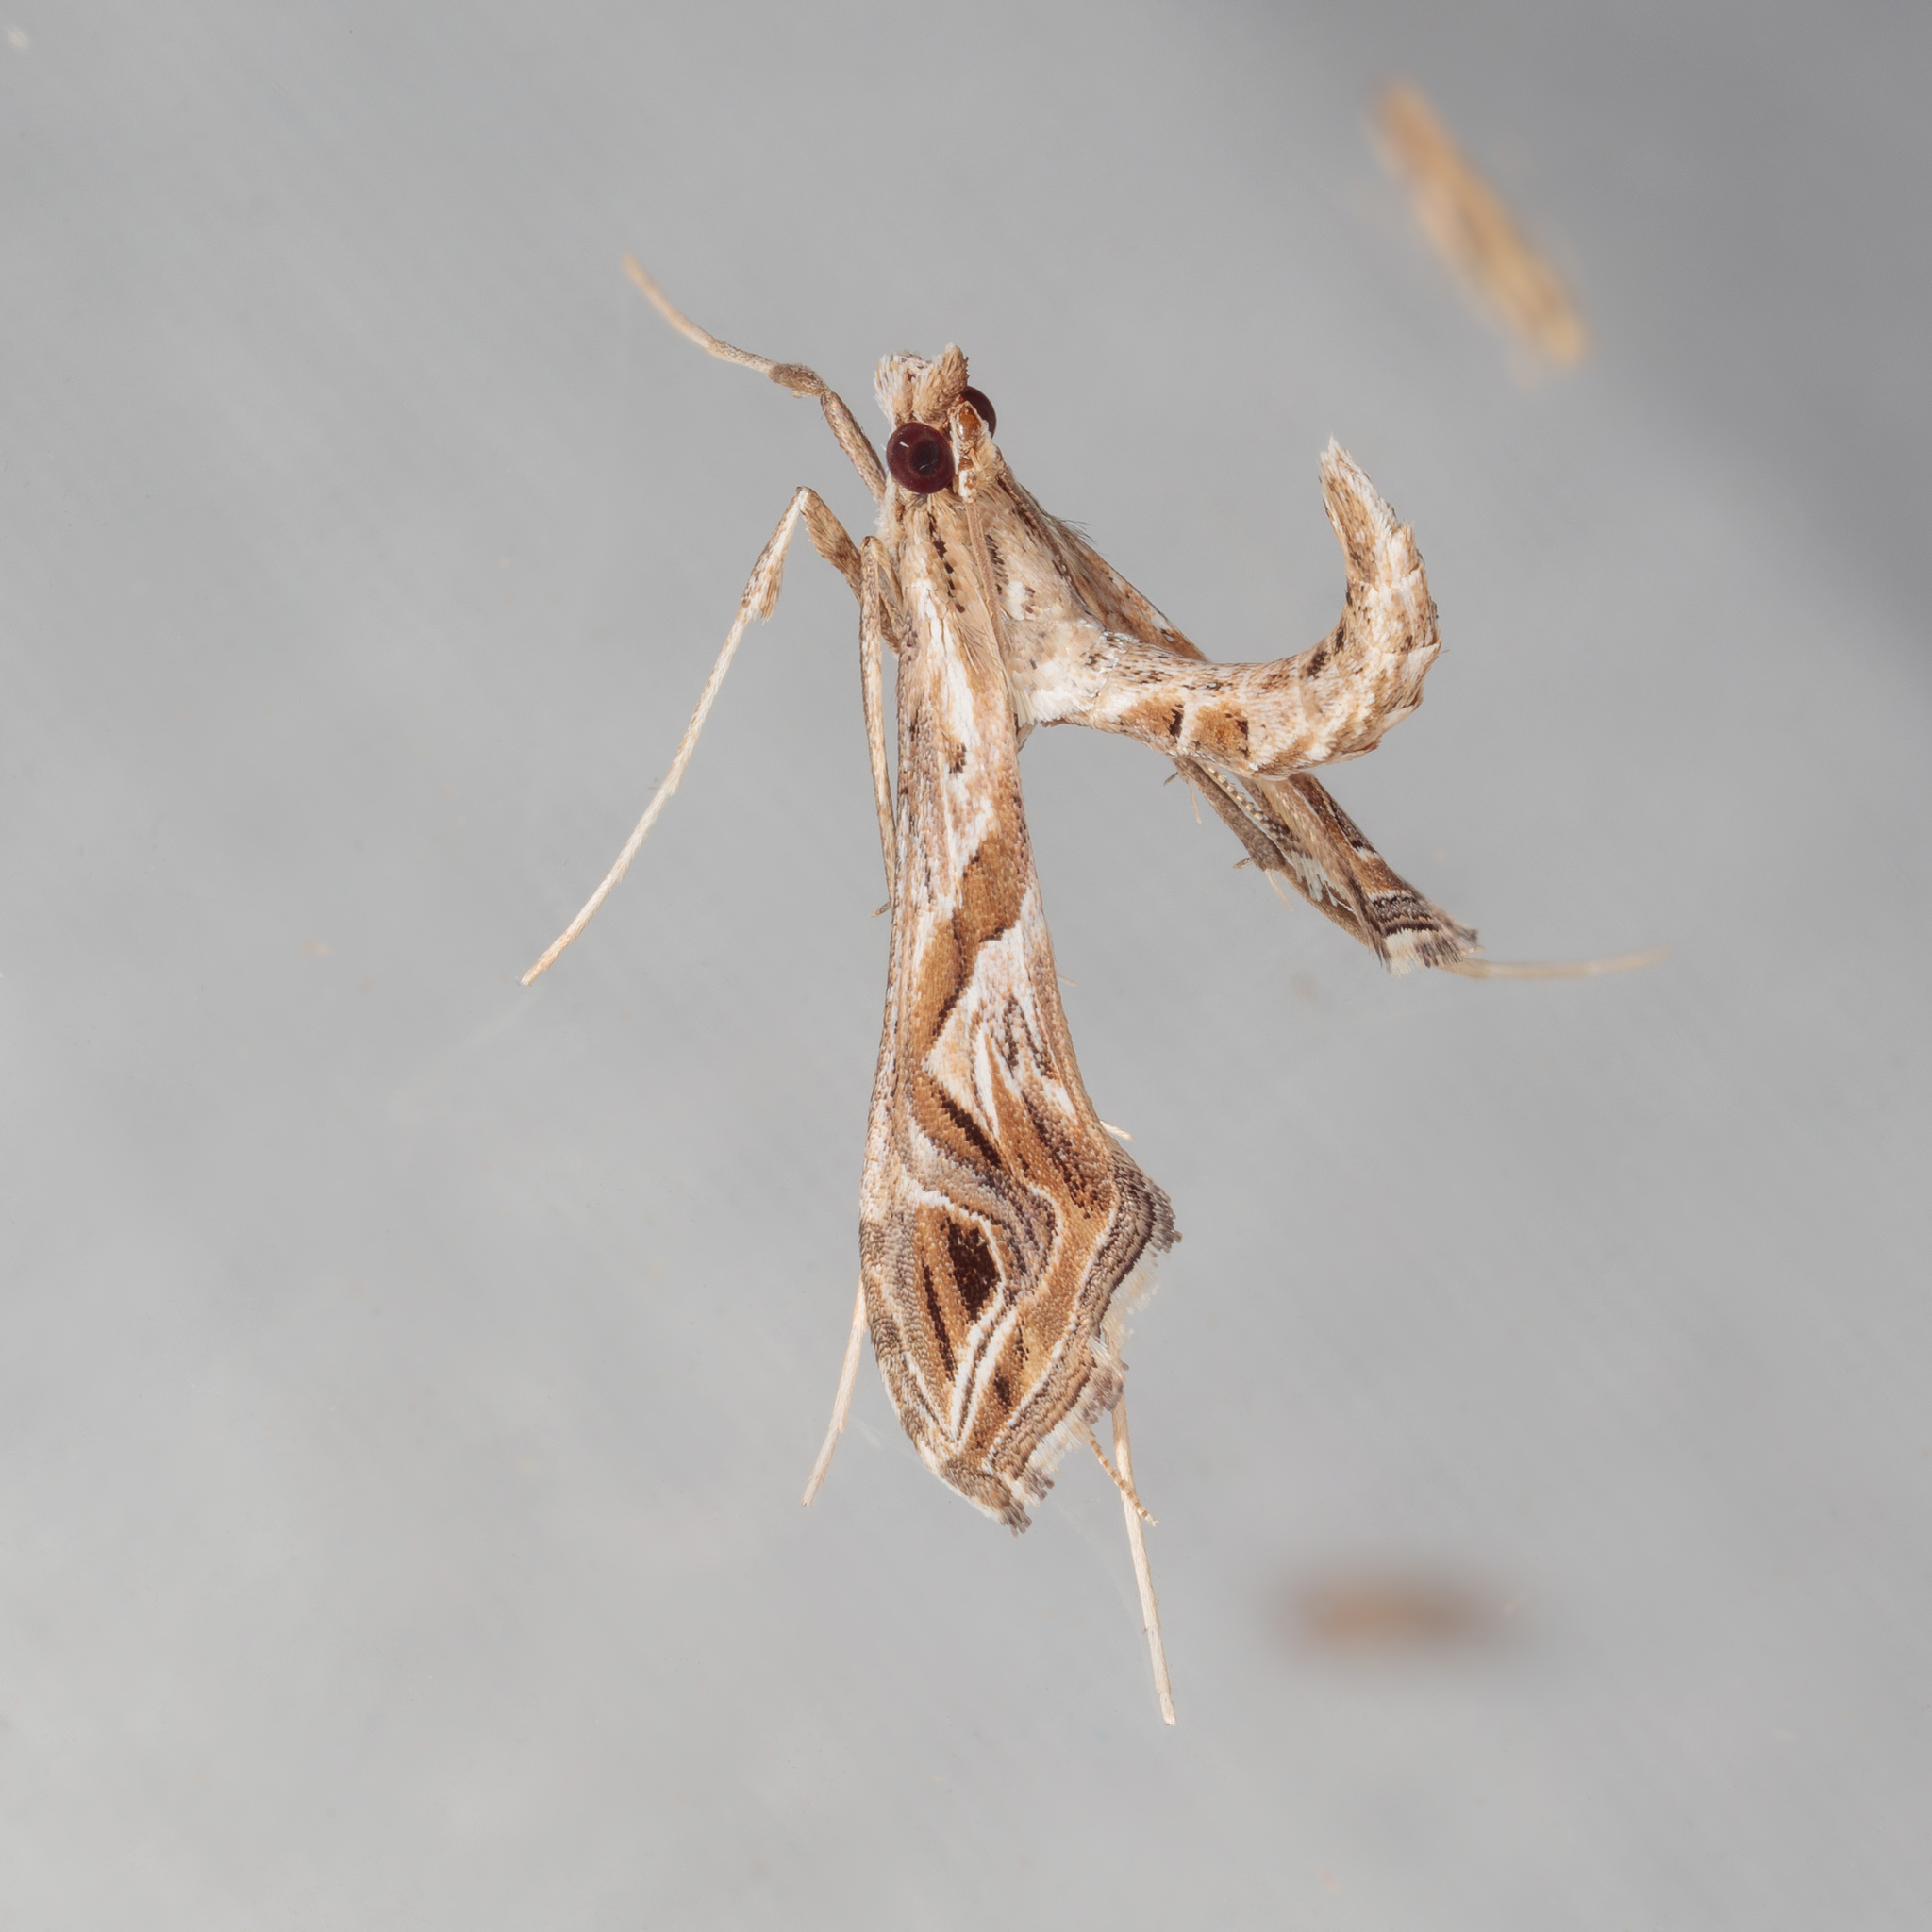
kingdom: Animalia
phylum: Arthropoda
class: Insecta
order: Lepidoptera
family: Crambidae
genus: Lineodes
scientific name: Lineodes integra
